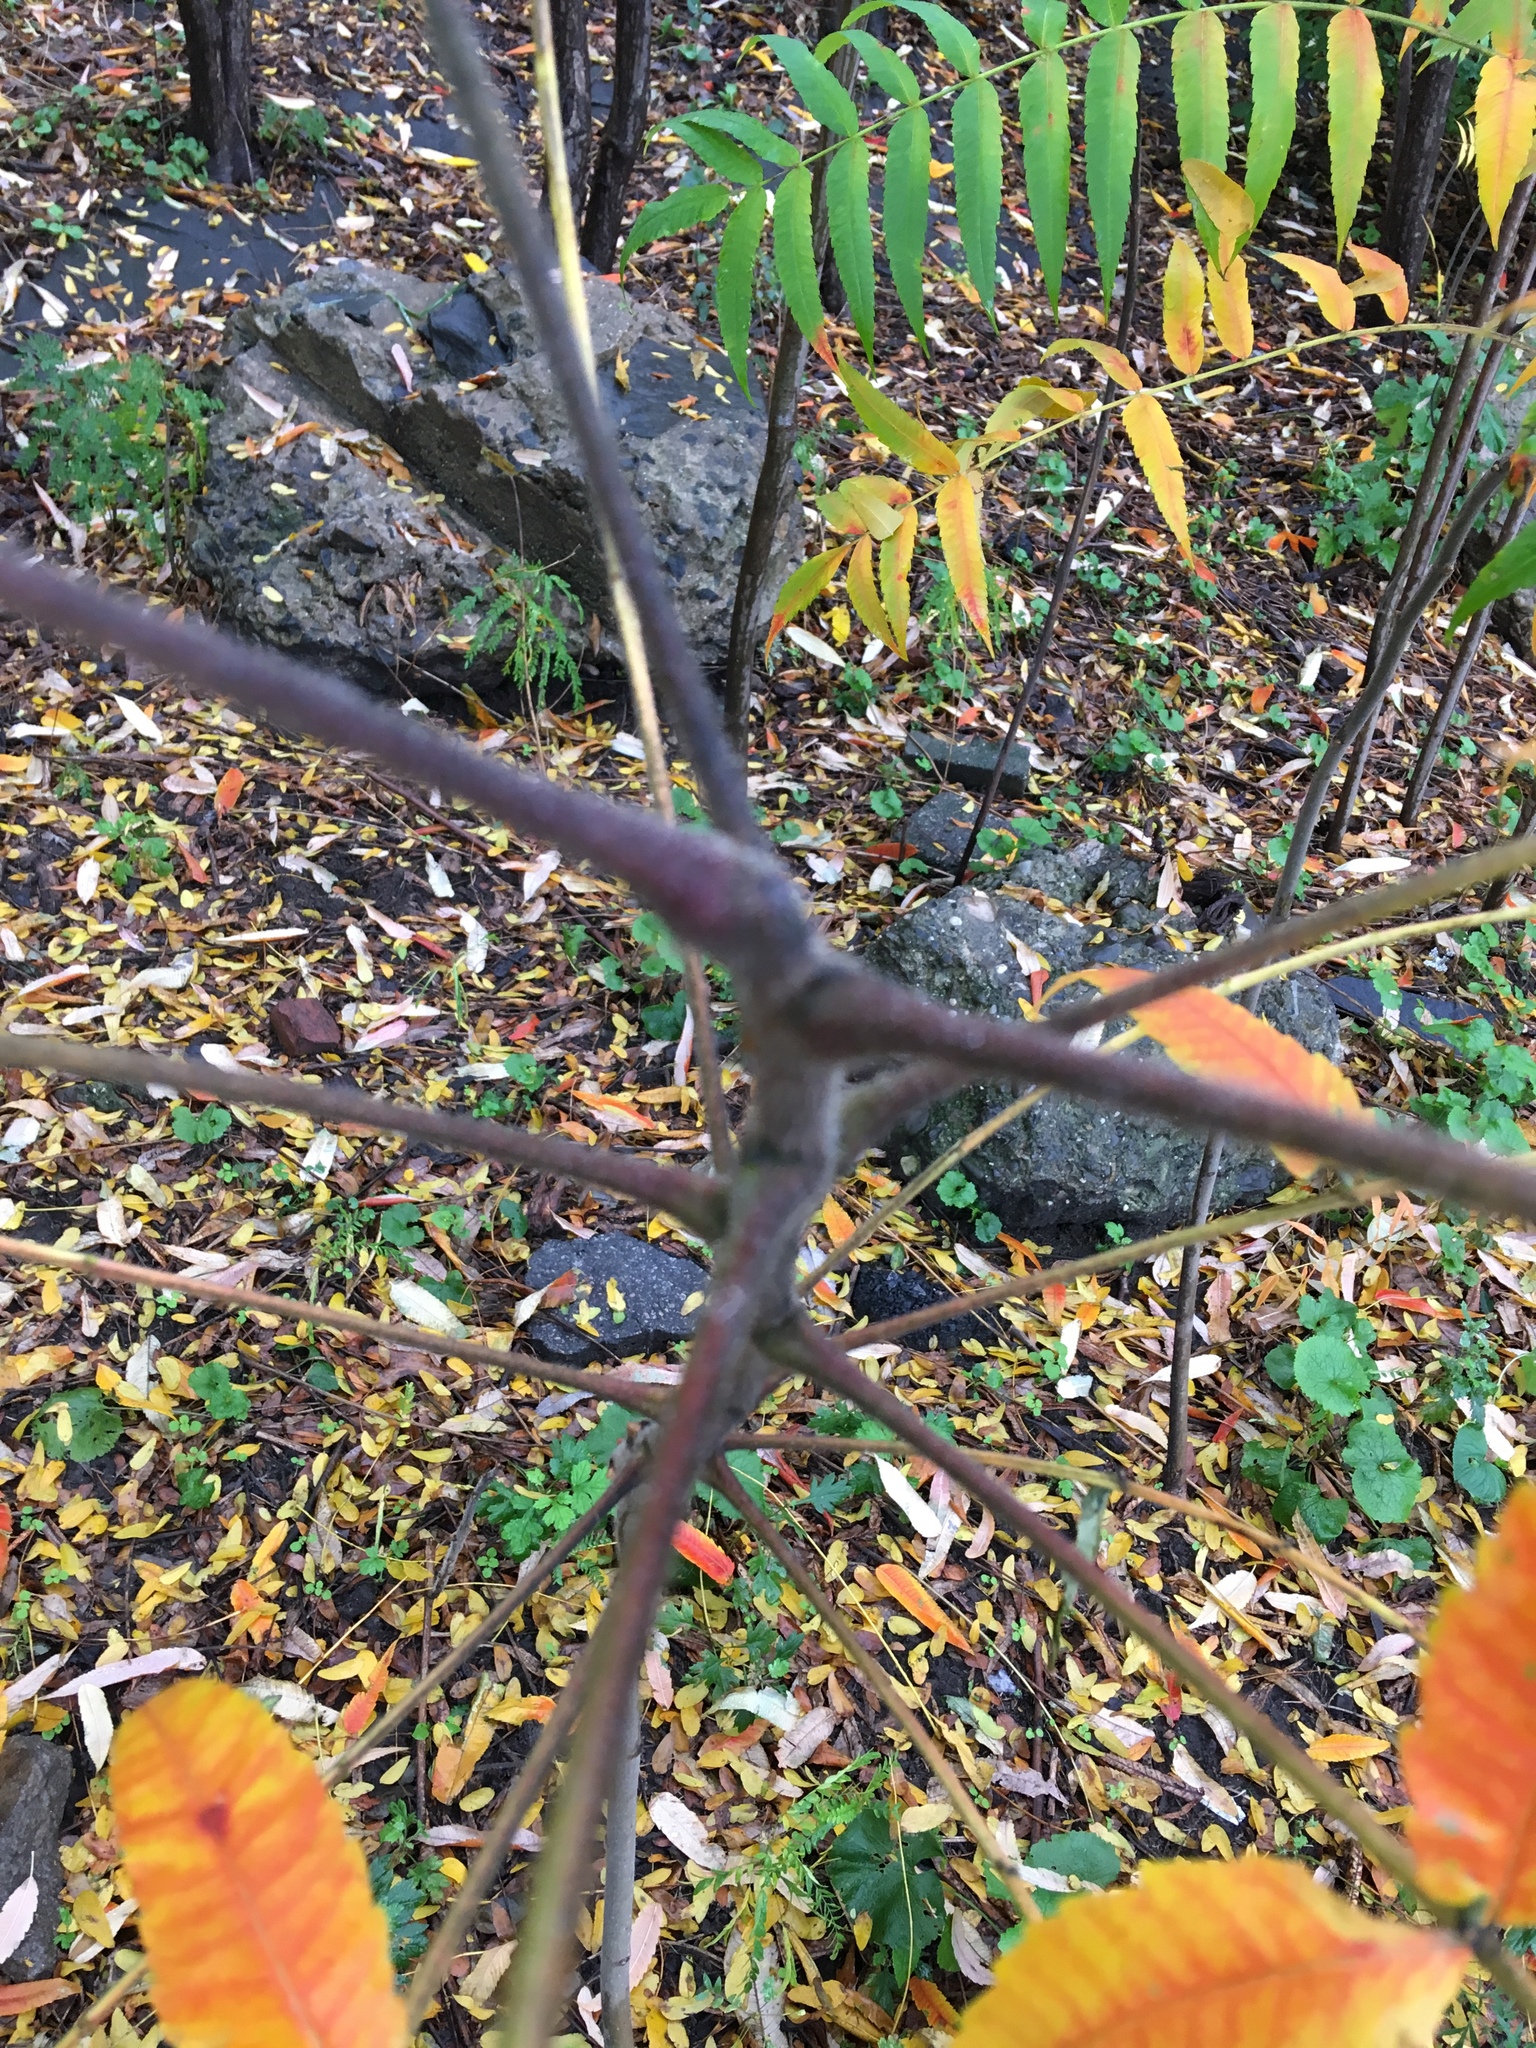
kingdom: Plantae
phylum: Tracheophyta
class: Magnoliopsida
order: Sapindales
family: Anacardiaceae
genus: Rhus
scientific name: Rhus typhina
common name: Staghorn sumac
